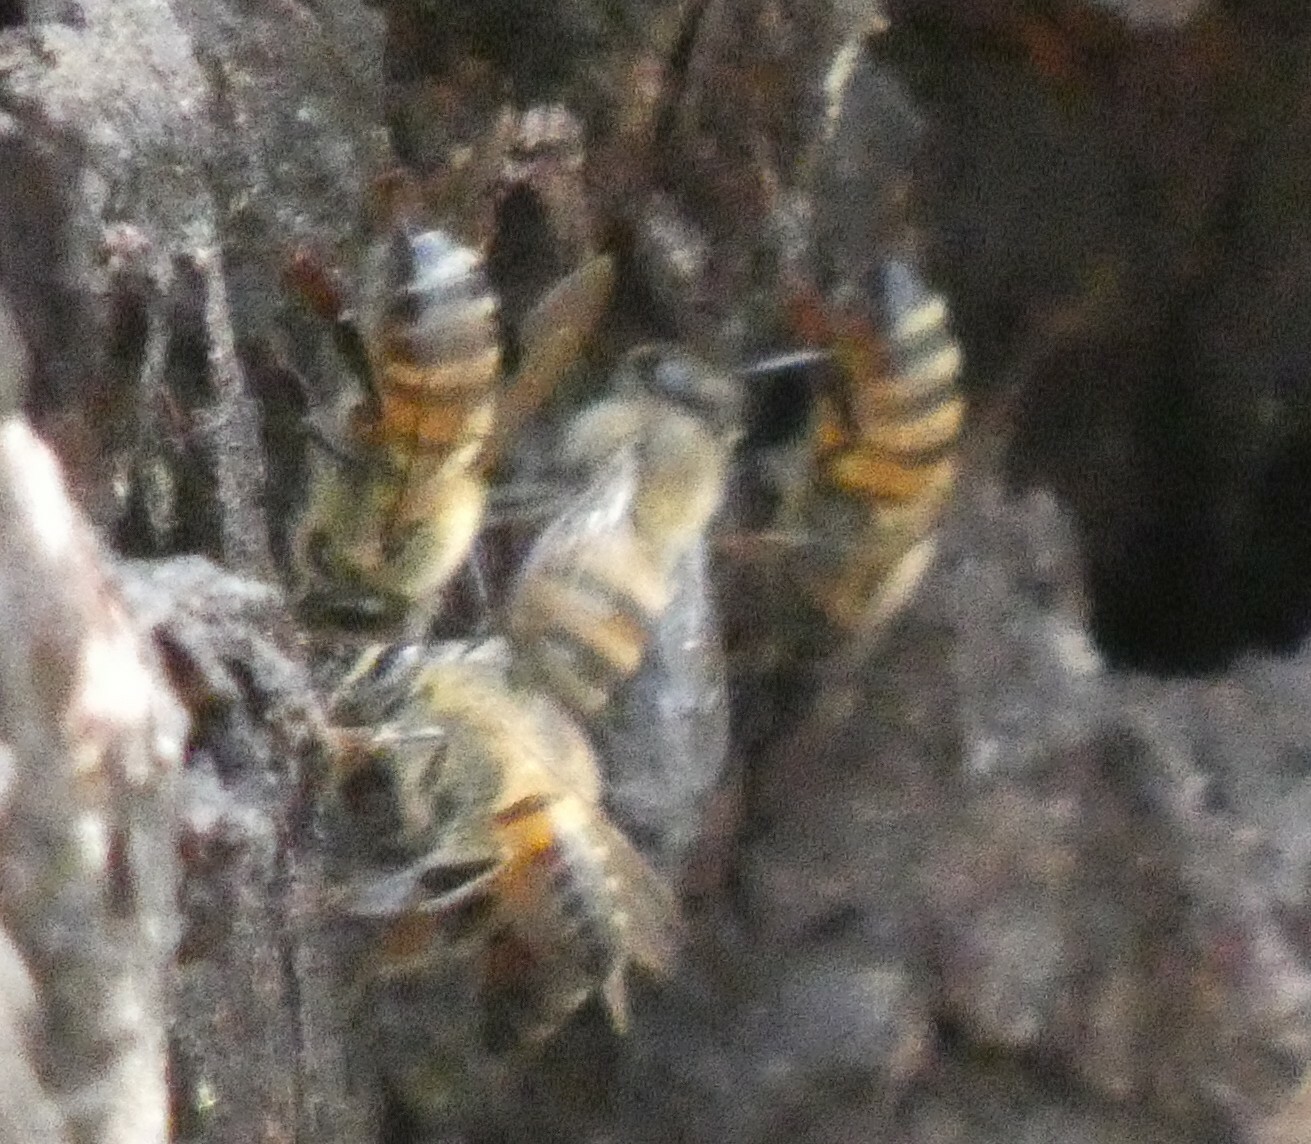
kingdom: Animalia
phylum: Arthropoda
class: Insecta
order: Hymenoptera
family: Apidae
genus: Apis
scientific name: Apis mellifera
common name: Honey bee
